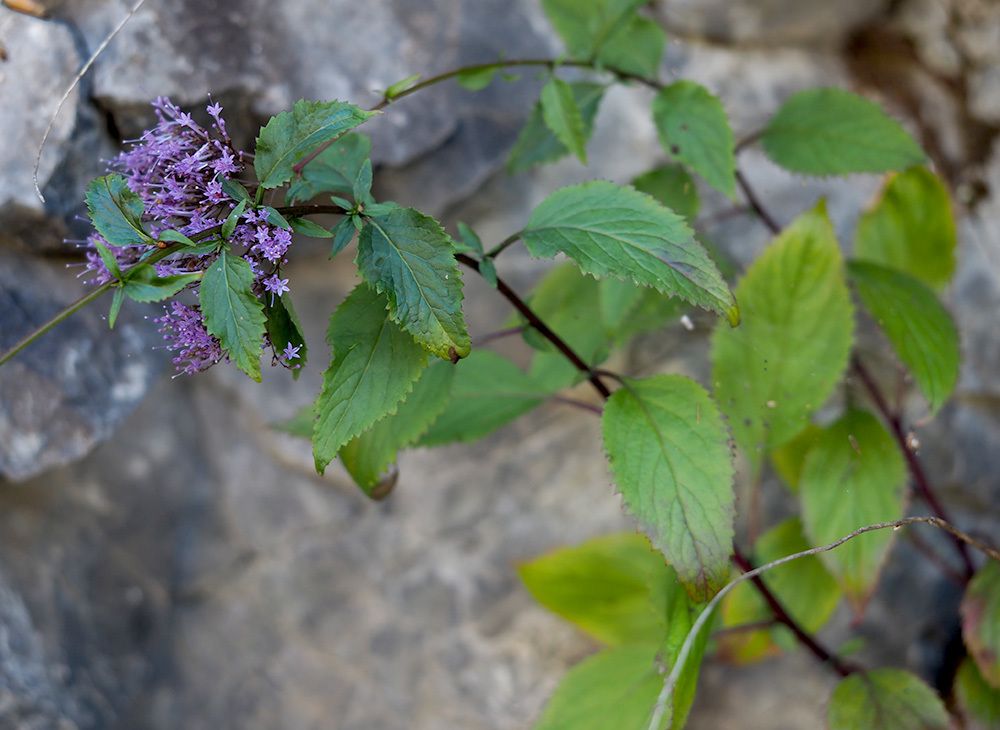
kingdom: Plantae
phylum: Tracheophyta
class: Magnoliopsida
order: Asterales
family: Campanulaceae
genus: Trachelium
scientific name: Trachelium caeruleum
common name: Throatwort
